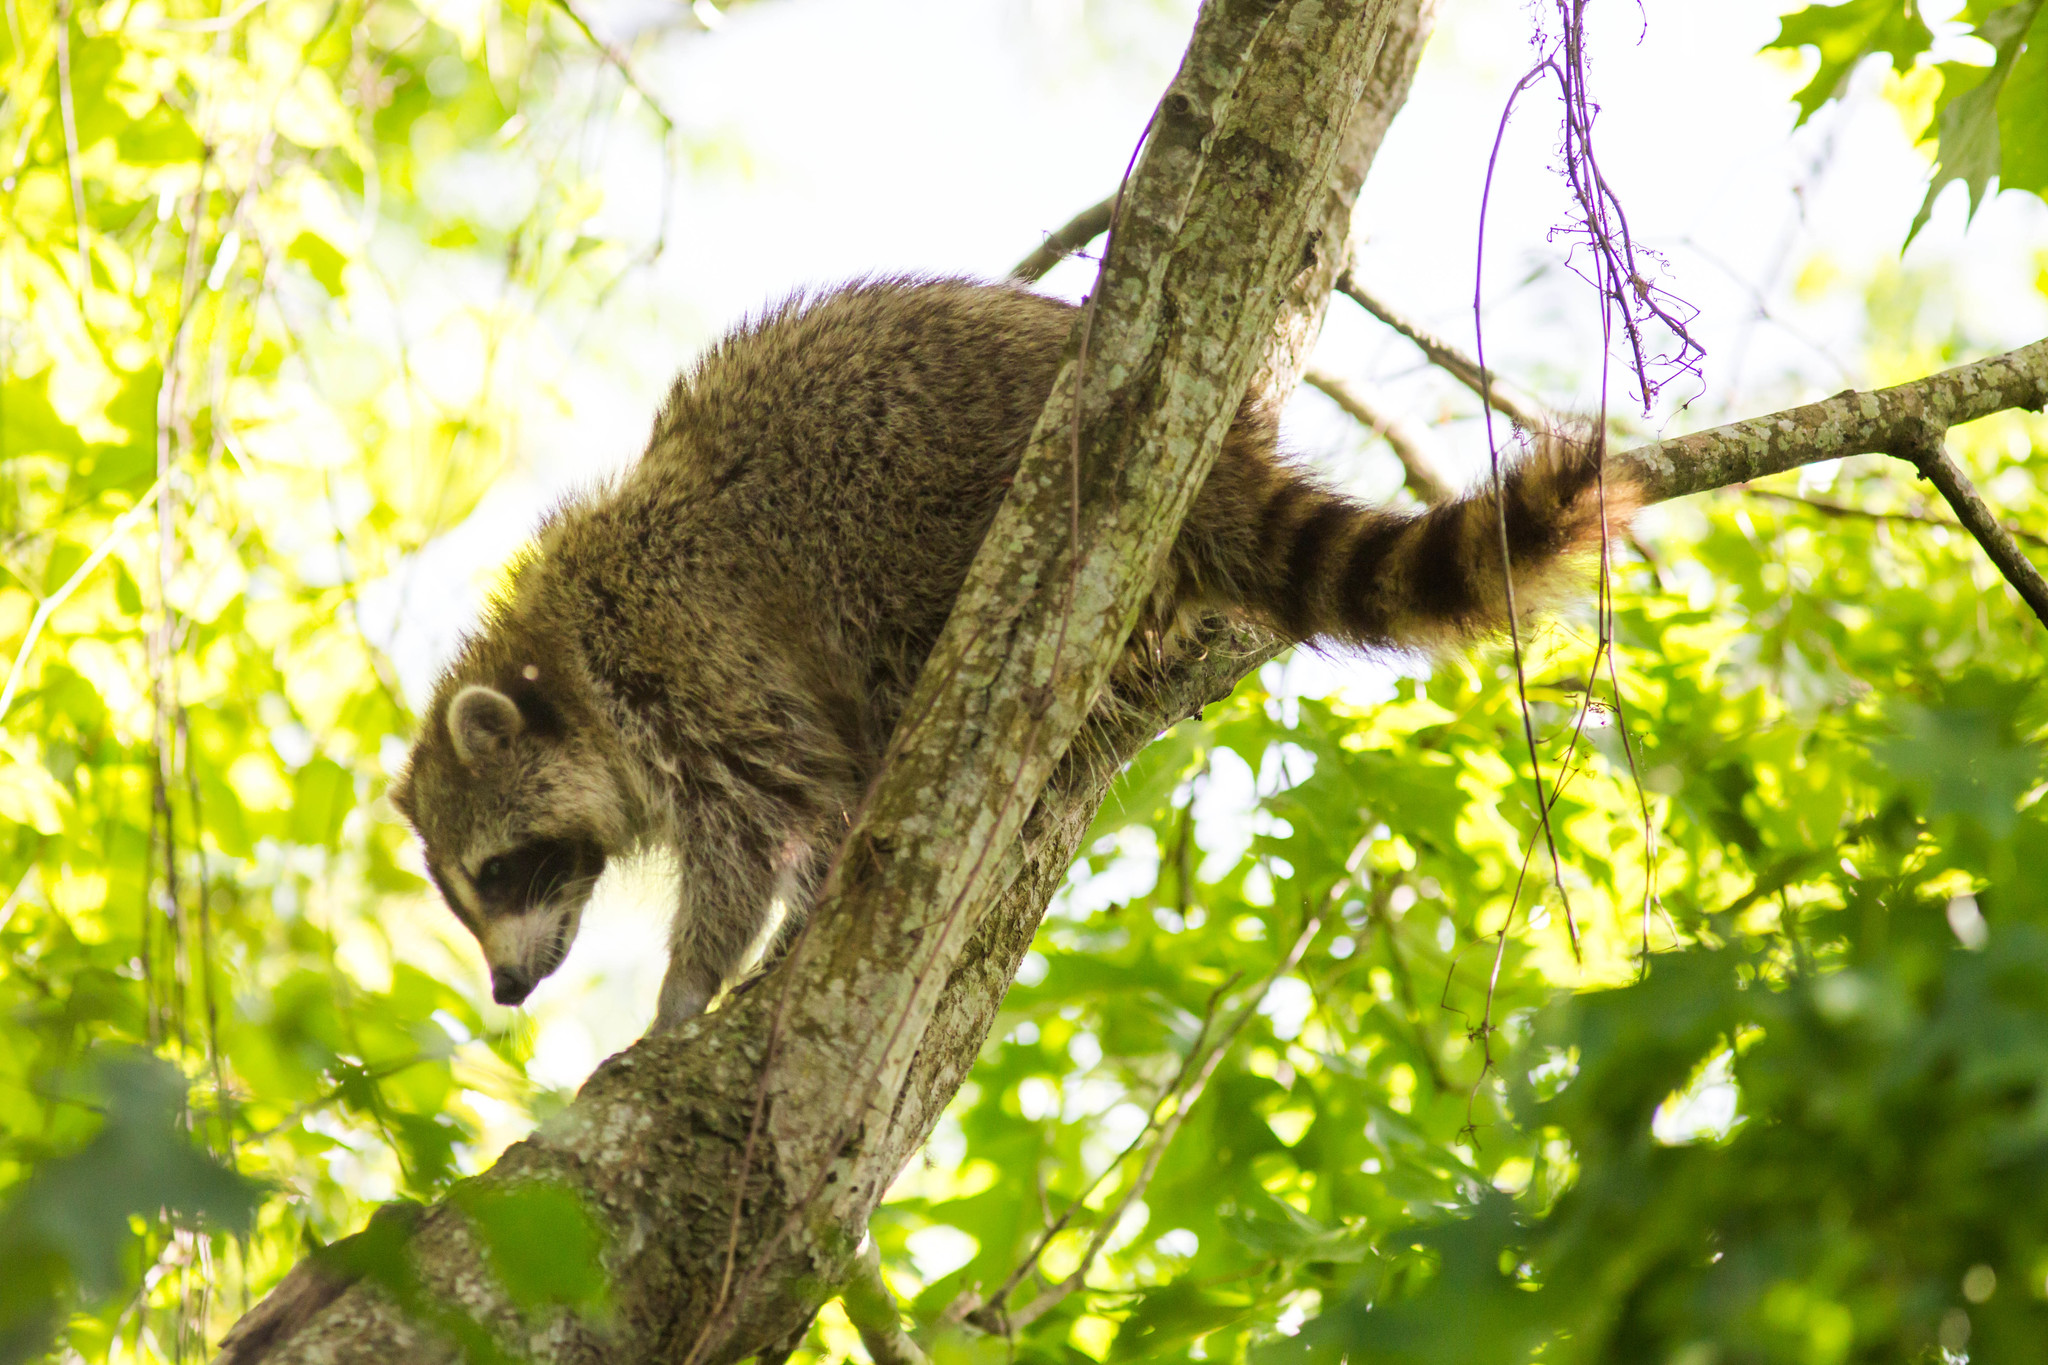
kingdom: Animalia
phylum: Chordata
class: Mammalia
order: Carnivora
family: Procyonidae
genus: Procyon
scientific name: Procyon lotor
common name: Raccoon
